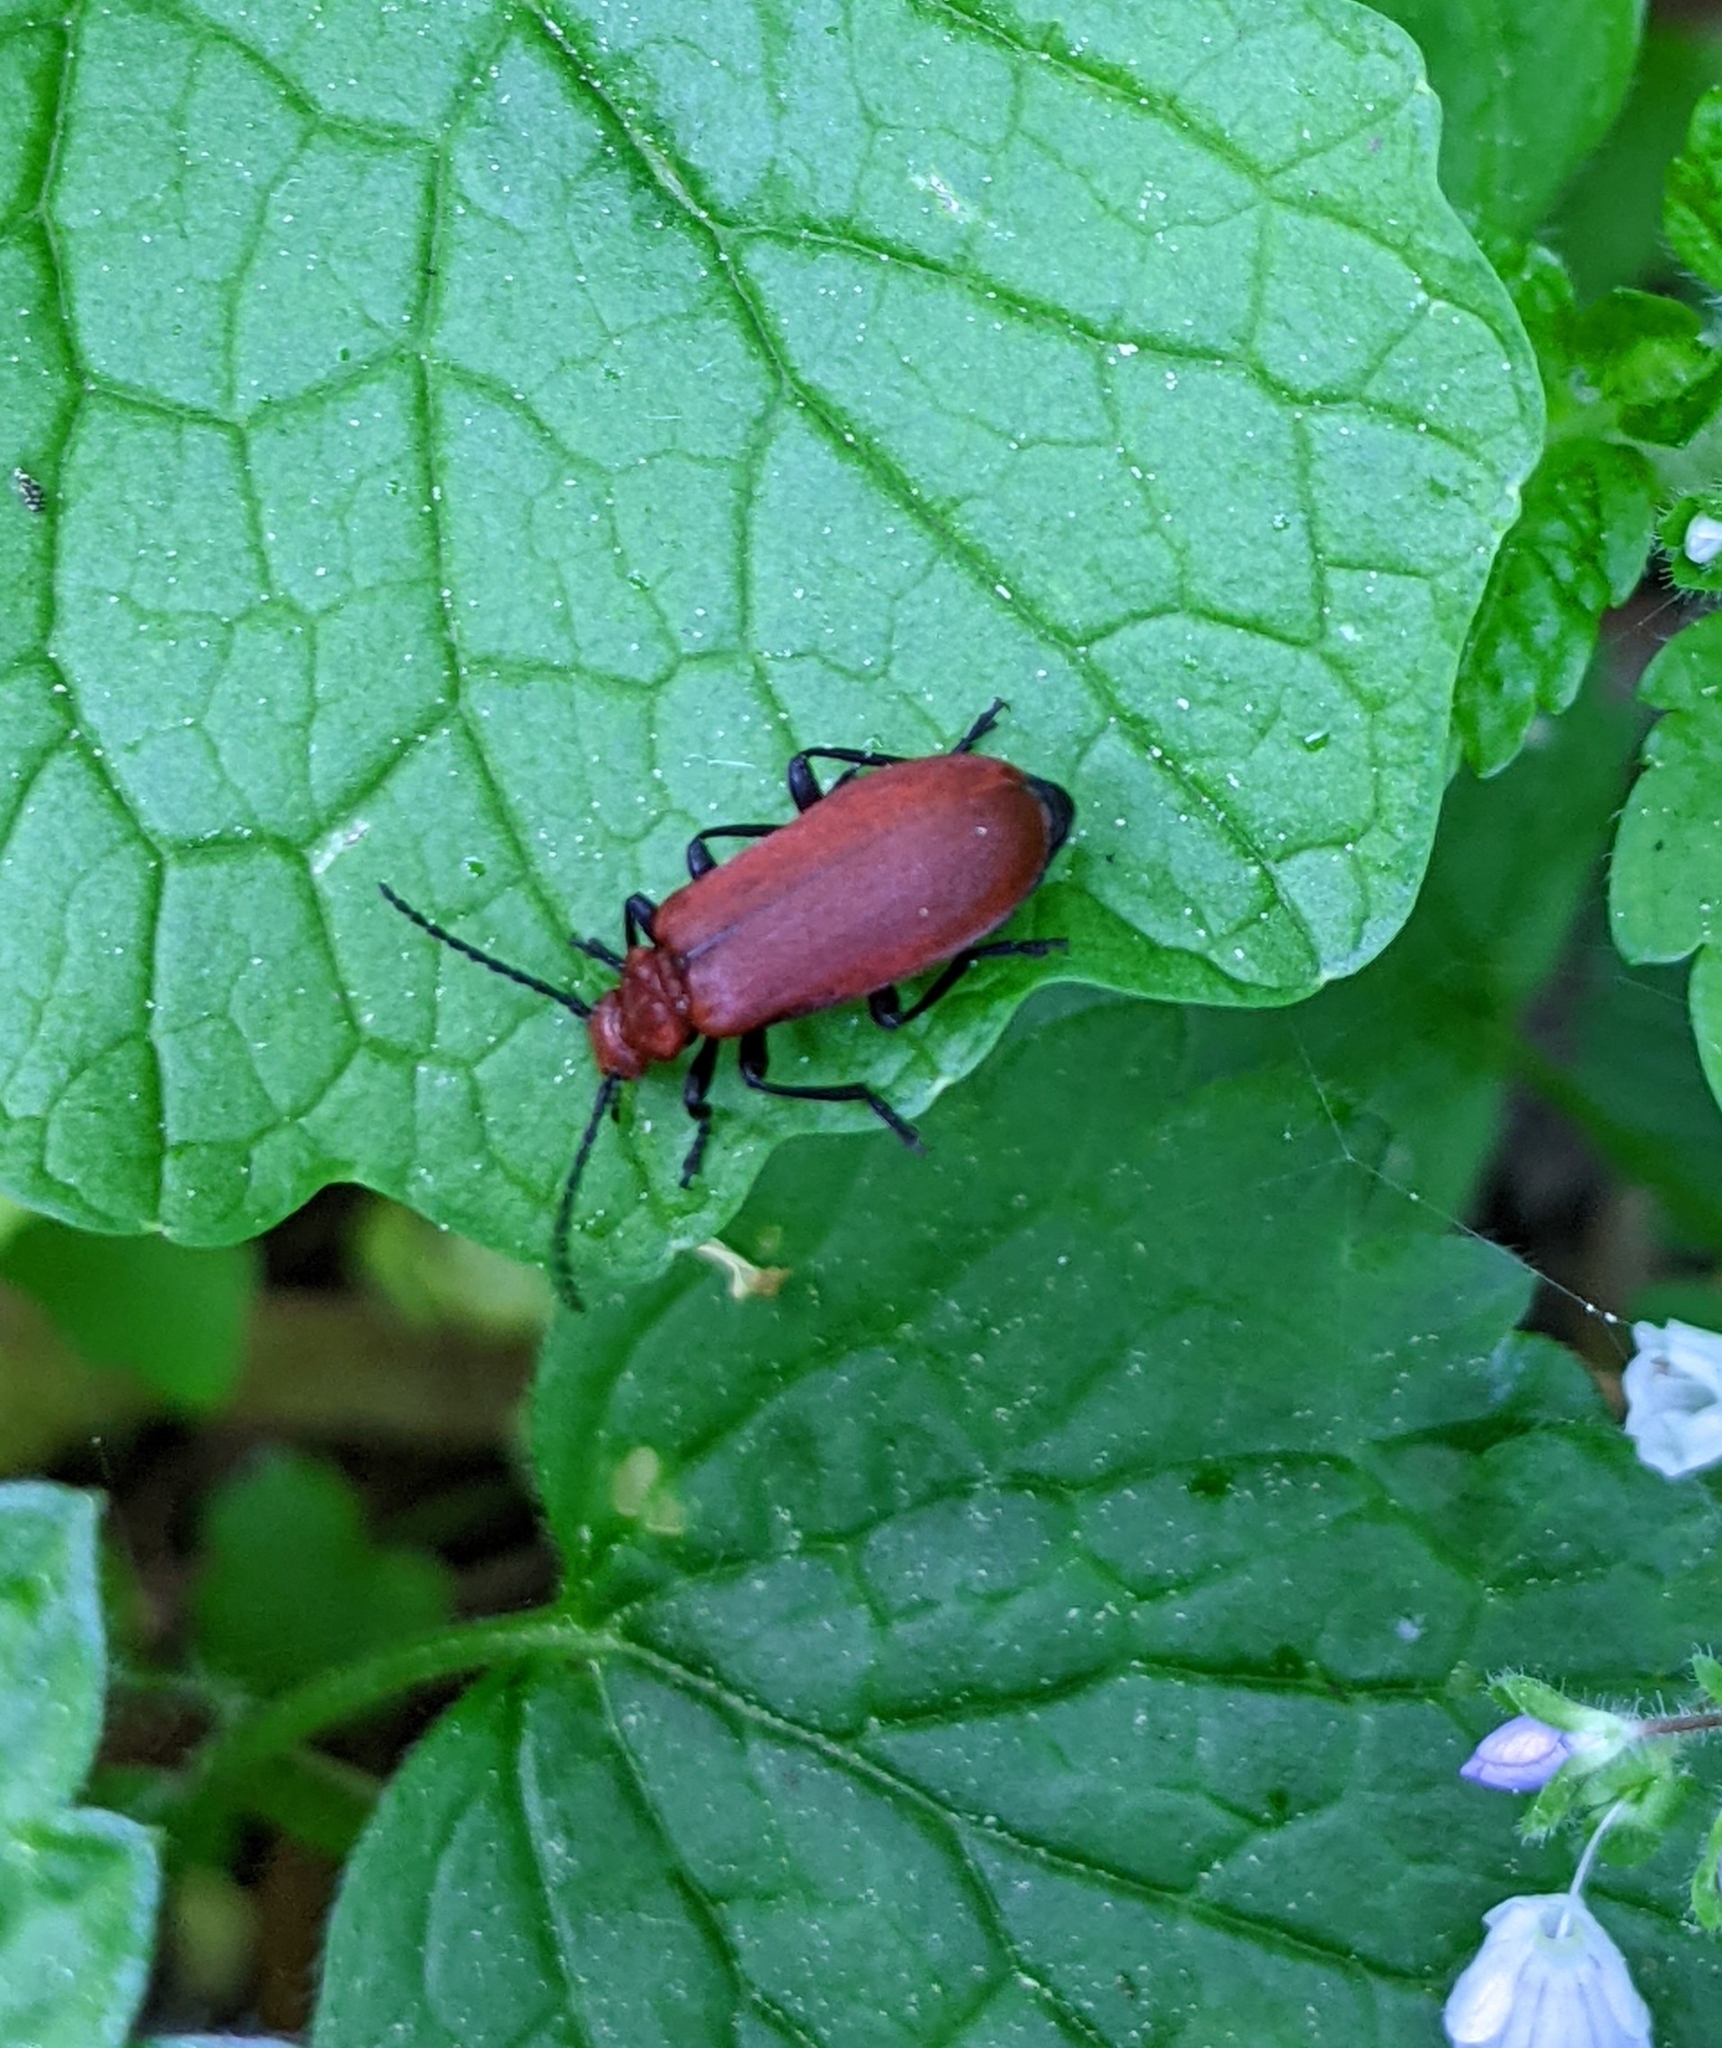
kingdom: Animalia
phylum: Arthropoda
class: Insecta
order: Coleoptera
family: Pyrochroidae
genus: Pyrochroa
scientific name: Pyrochroa serraticornis
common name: Red-headed cardinal beetle
